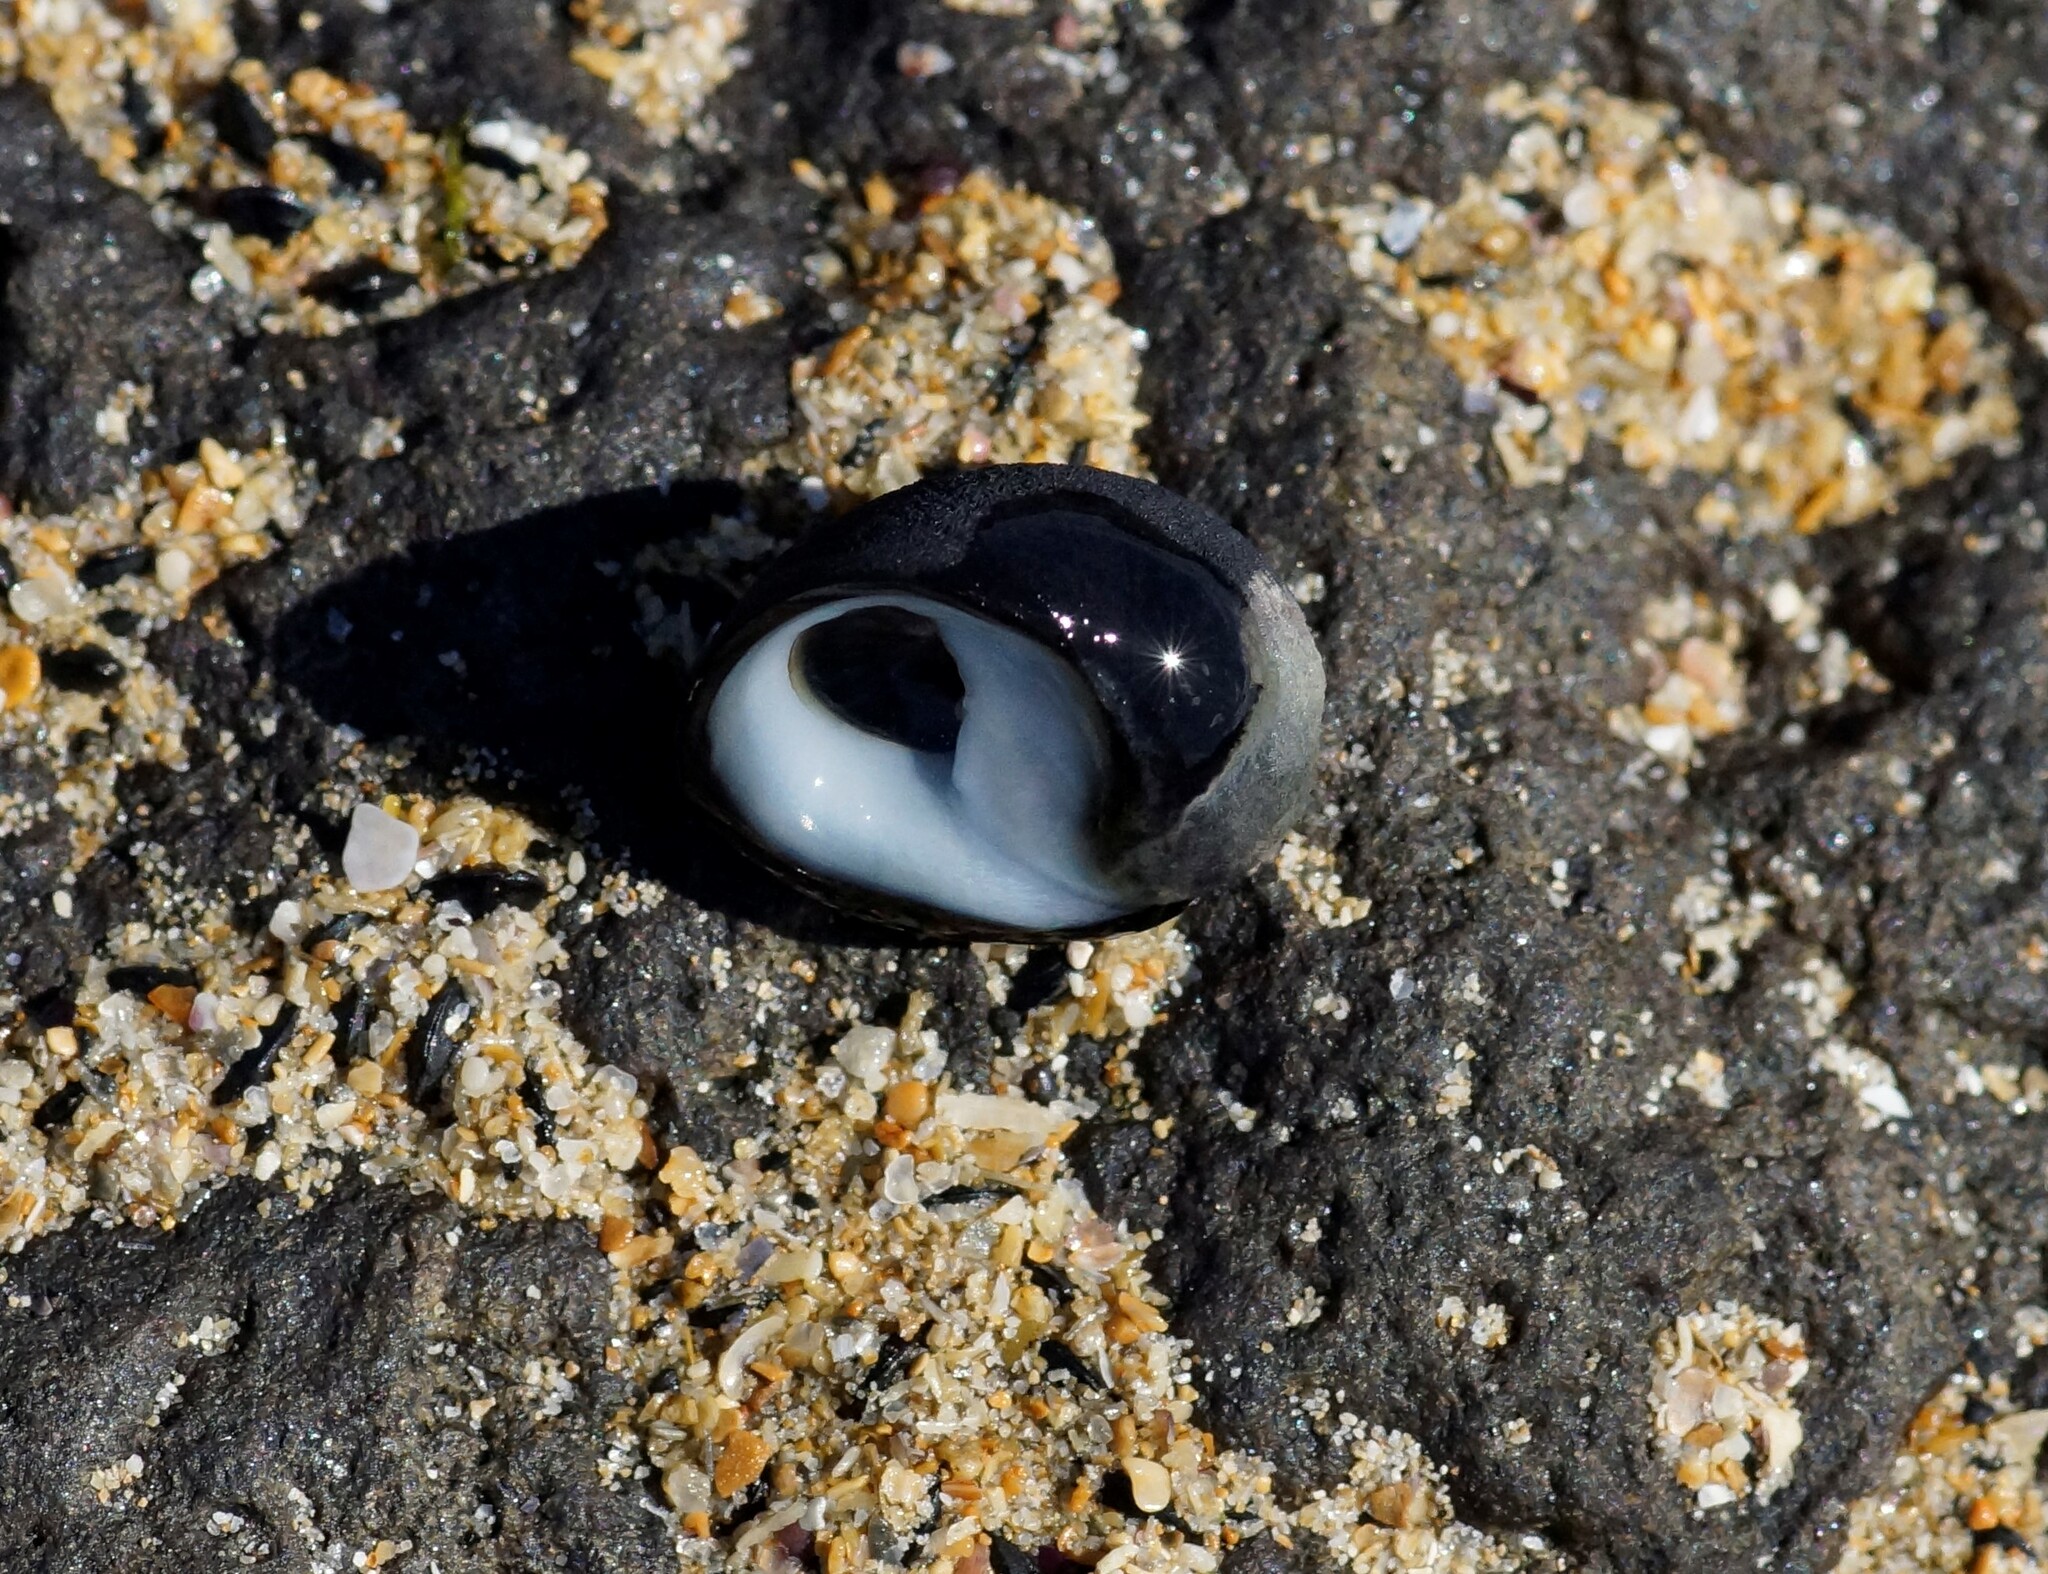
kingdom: Animalia
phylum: Mollusca
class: Gastropoda
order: Cycloneritida
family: Neritidae
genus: Nerita
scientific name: Nerita atramentosa
